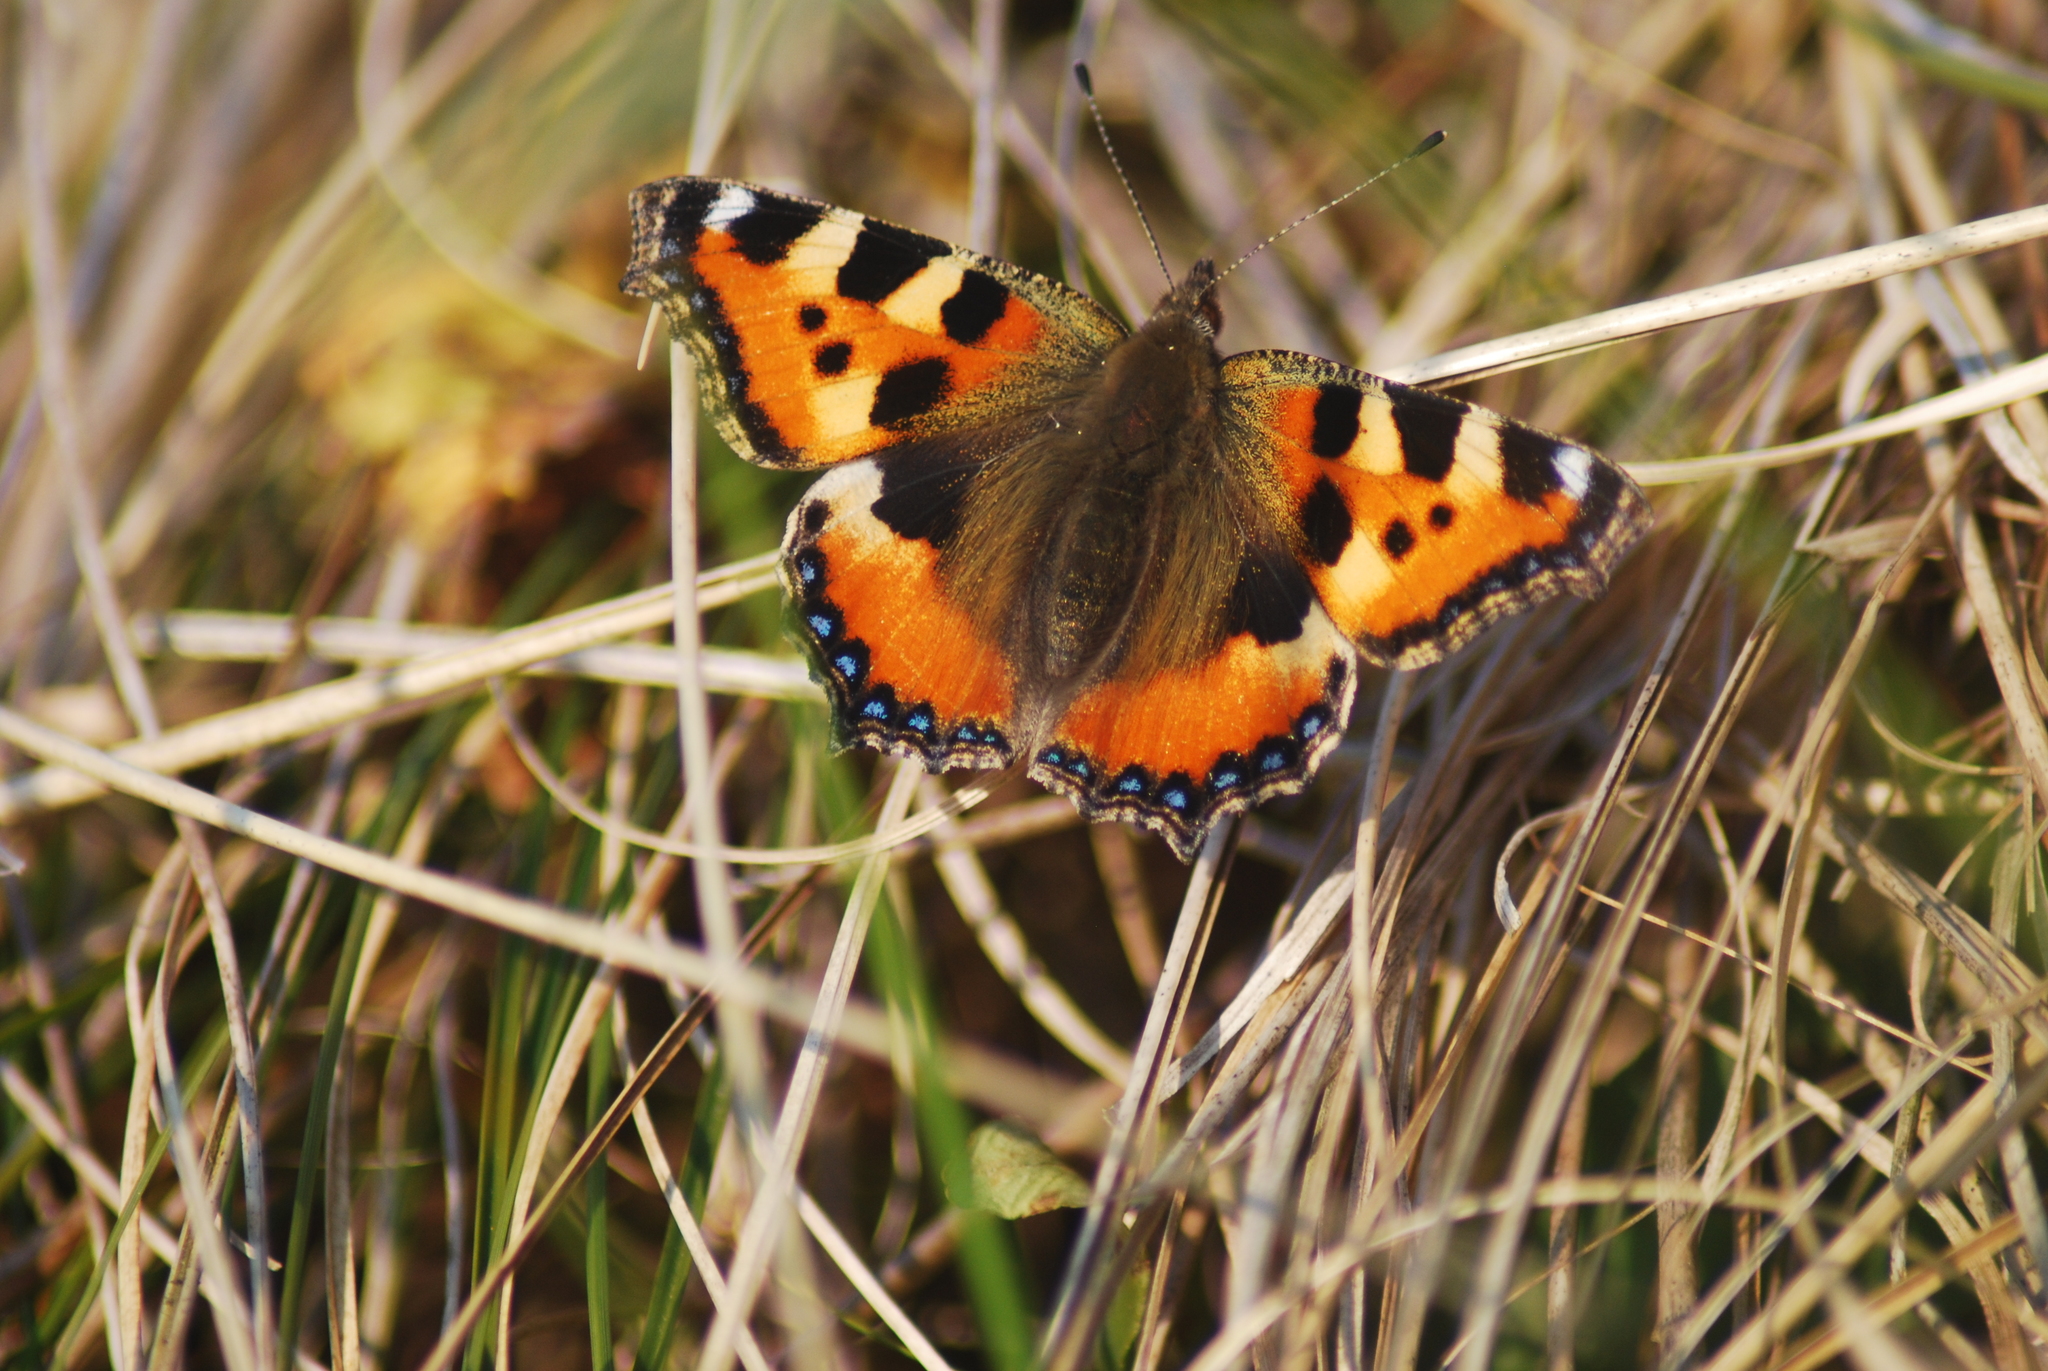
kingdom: Animalia
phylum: Arthropoda
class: Insecta
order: Lepidoptera
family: Nymphalidae
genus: Aglais
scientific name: Aglais urticae
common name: Small tortoiseshell
